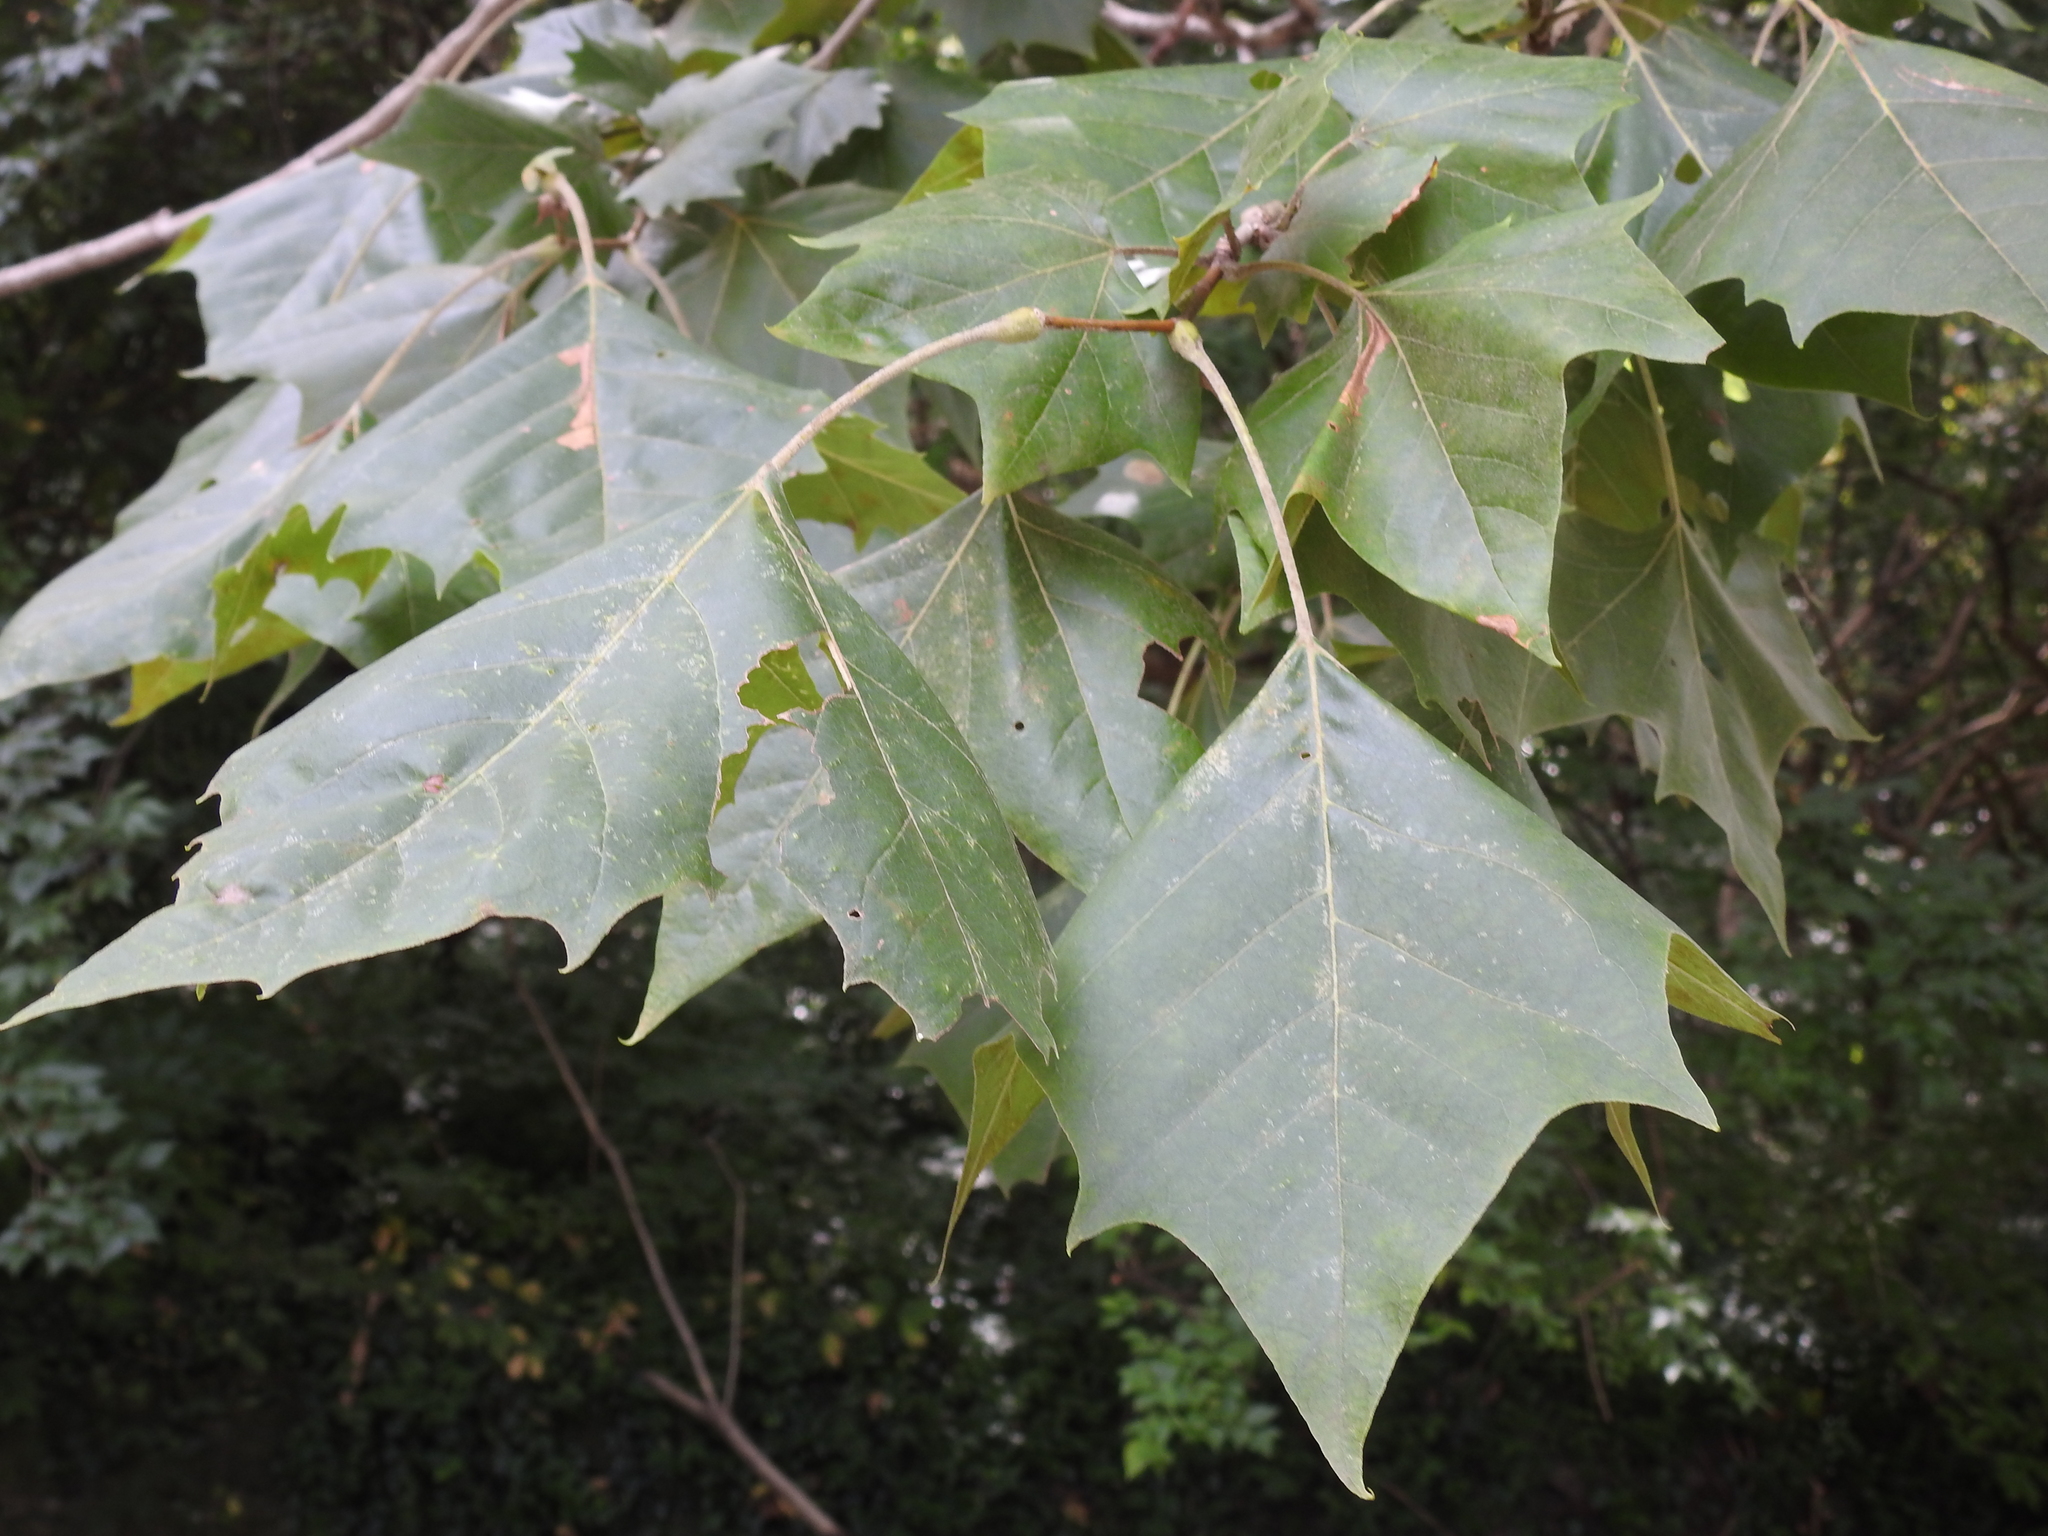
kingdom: Plantae
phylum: Tracheophyta
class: Magnoliopsida
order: Proteales
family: Platanaceae
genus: Platanus
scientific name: Platanus occidentalis
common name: American sycamore
